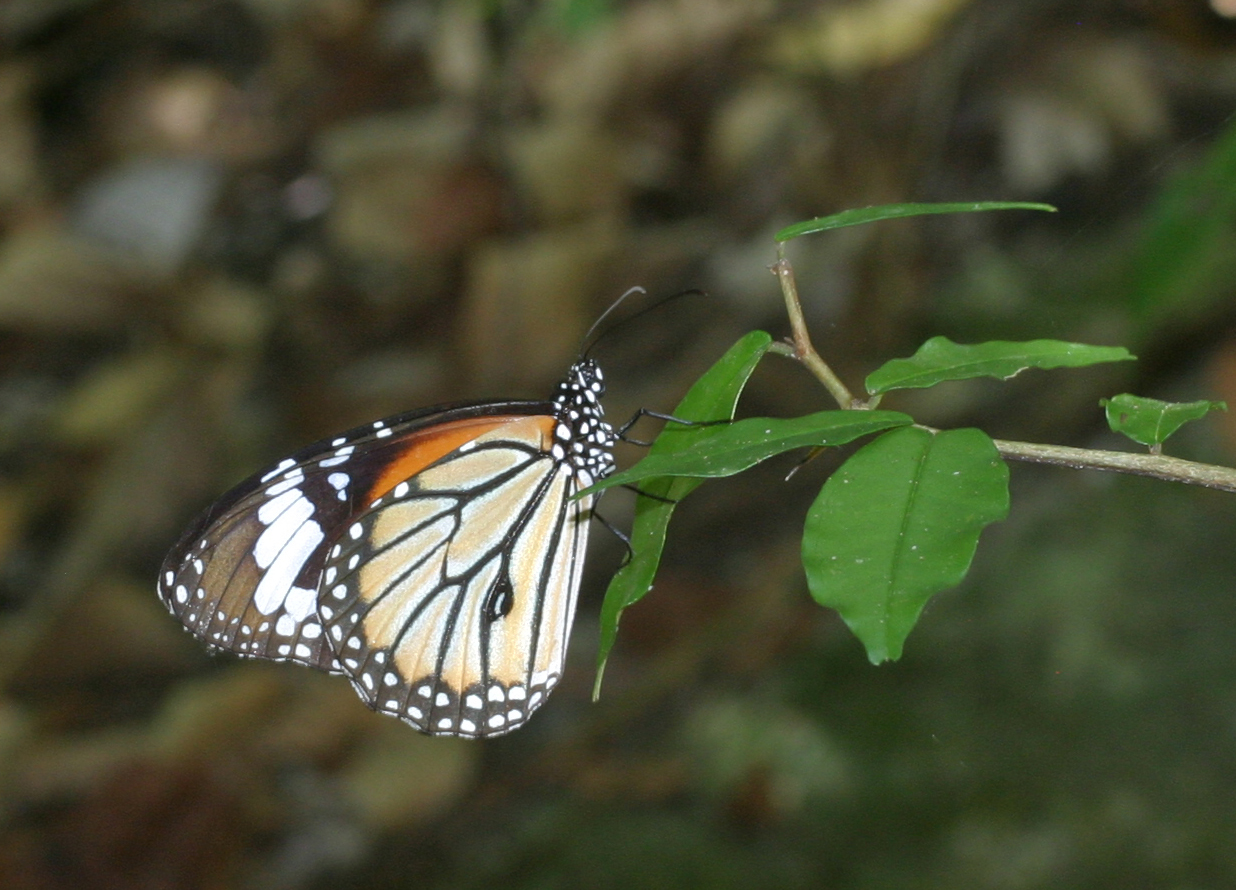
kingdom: Animalia
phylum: Arthropoda
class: Insecta
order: Lepidoptera
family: Nymphalidae
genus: Danaus
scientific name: Danaus genutia
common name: Common tiger butterfly
